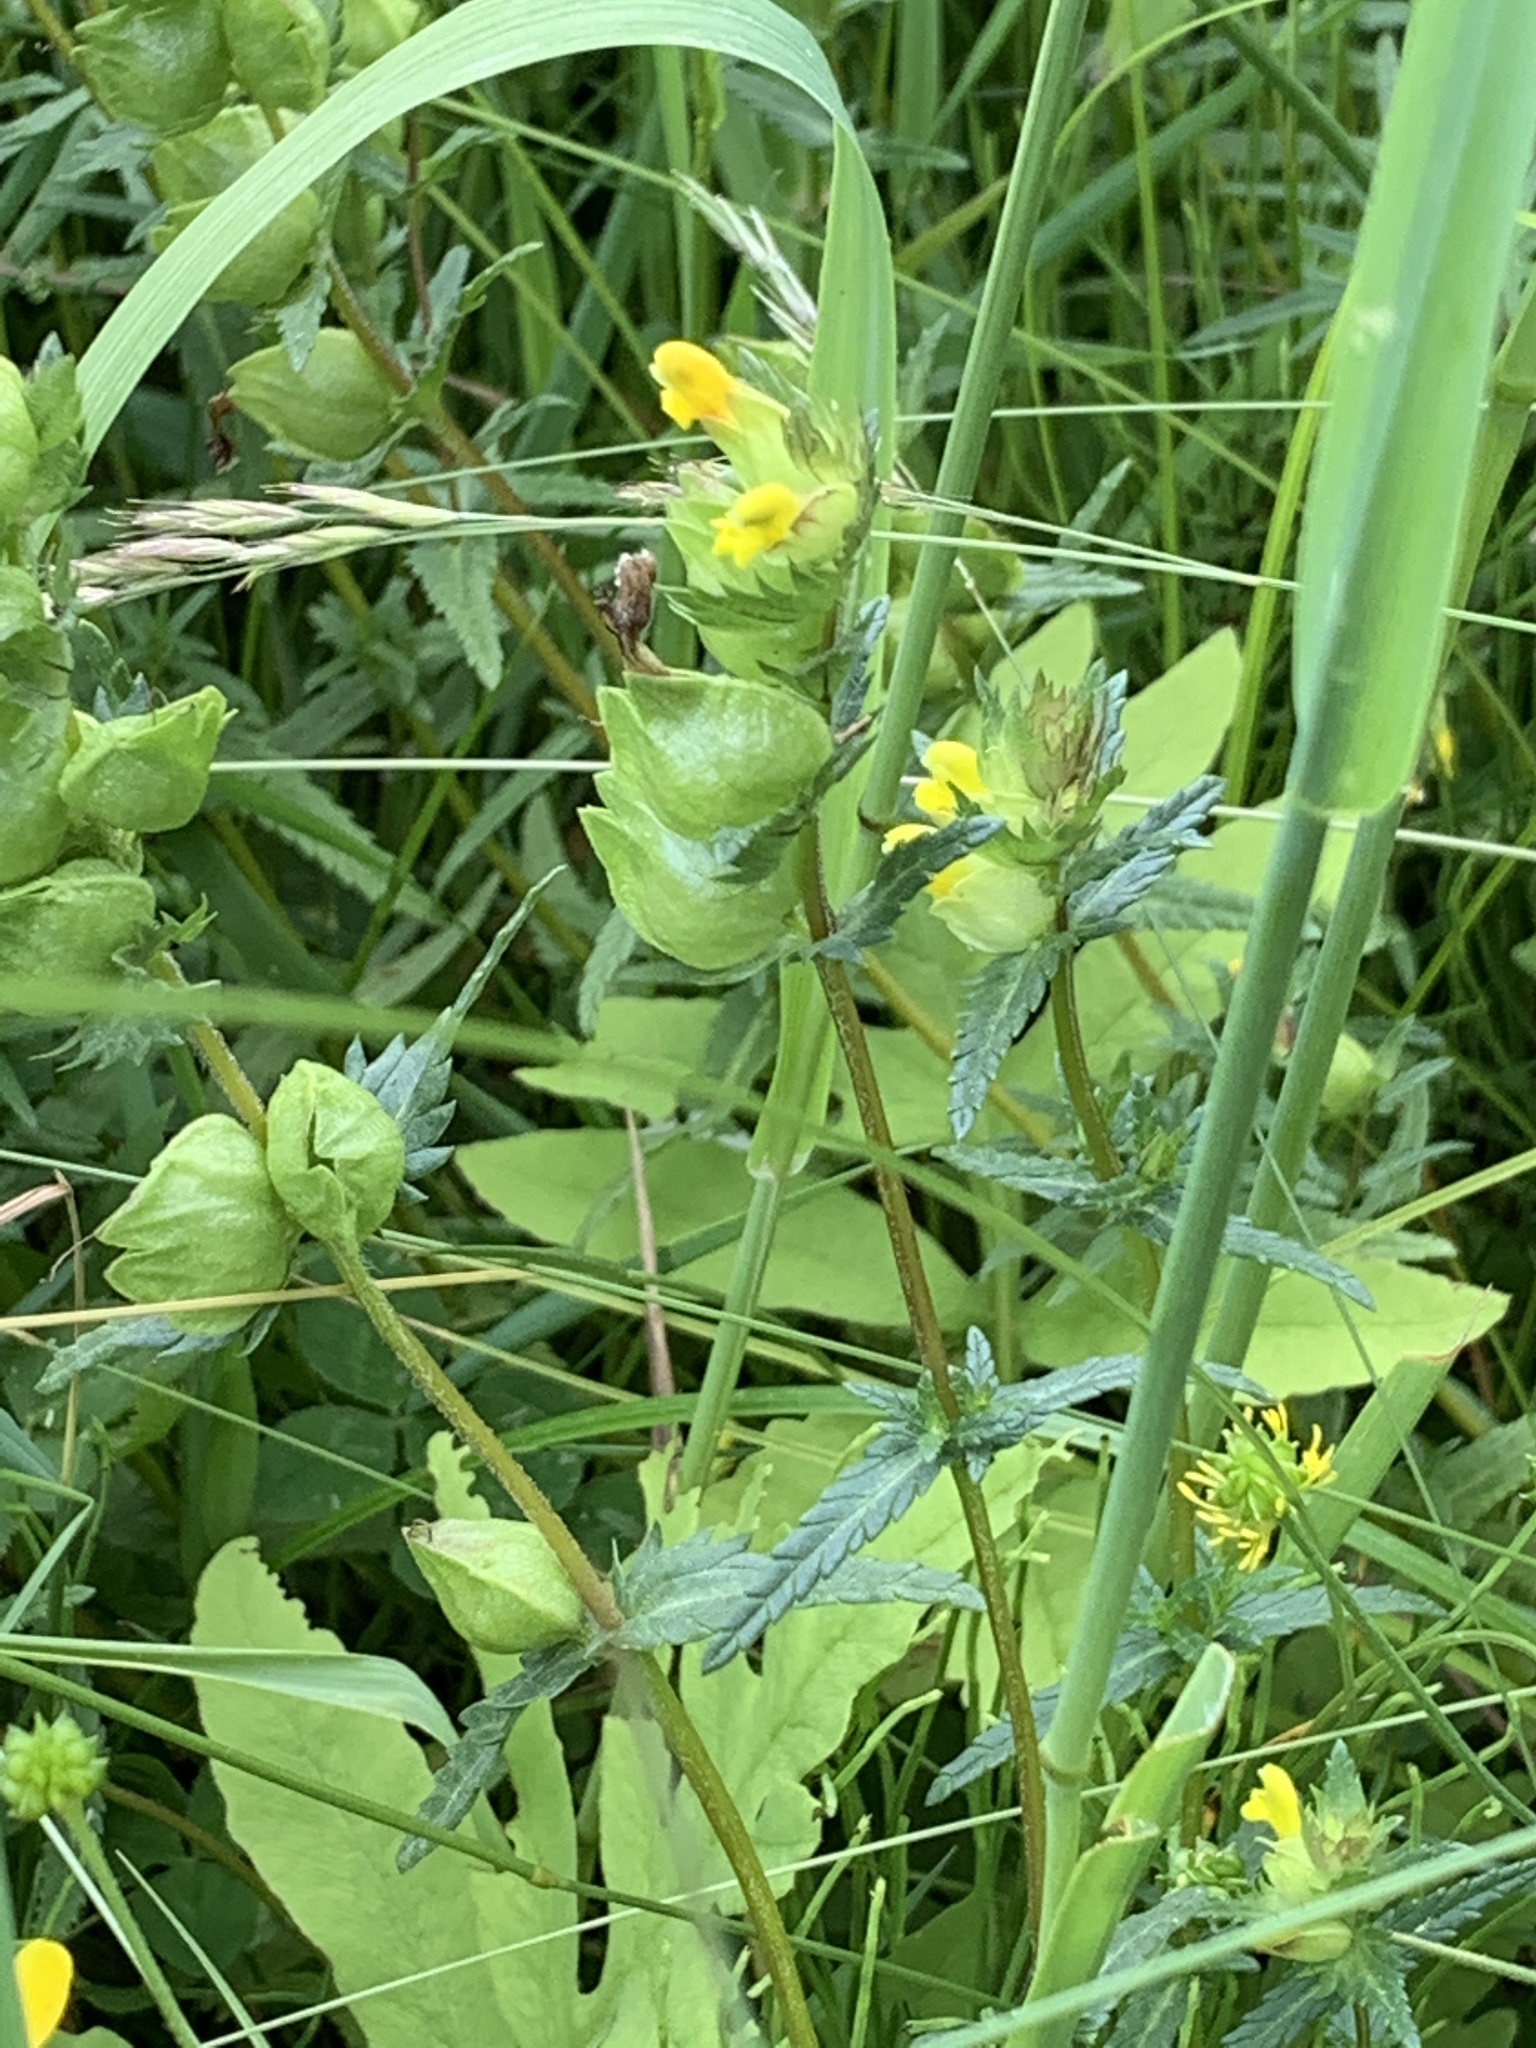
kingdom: Plantae
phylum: Tracheophyta
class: Magnoliopsida
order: Lamiales
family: Orobanchaceae
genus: Rhinanthus
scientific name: Rhinanthus minor
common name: Yellow-rattle
